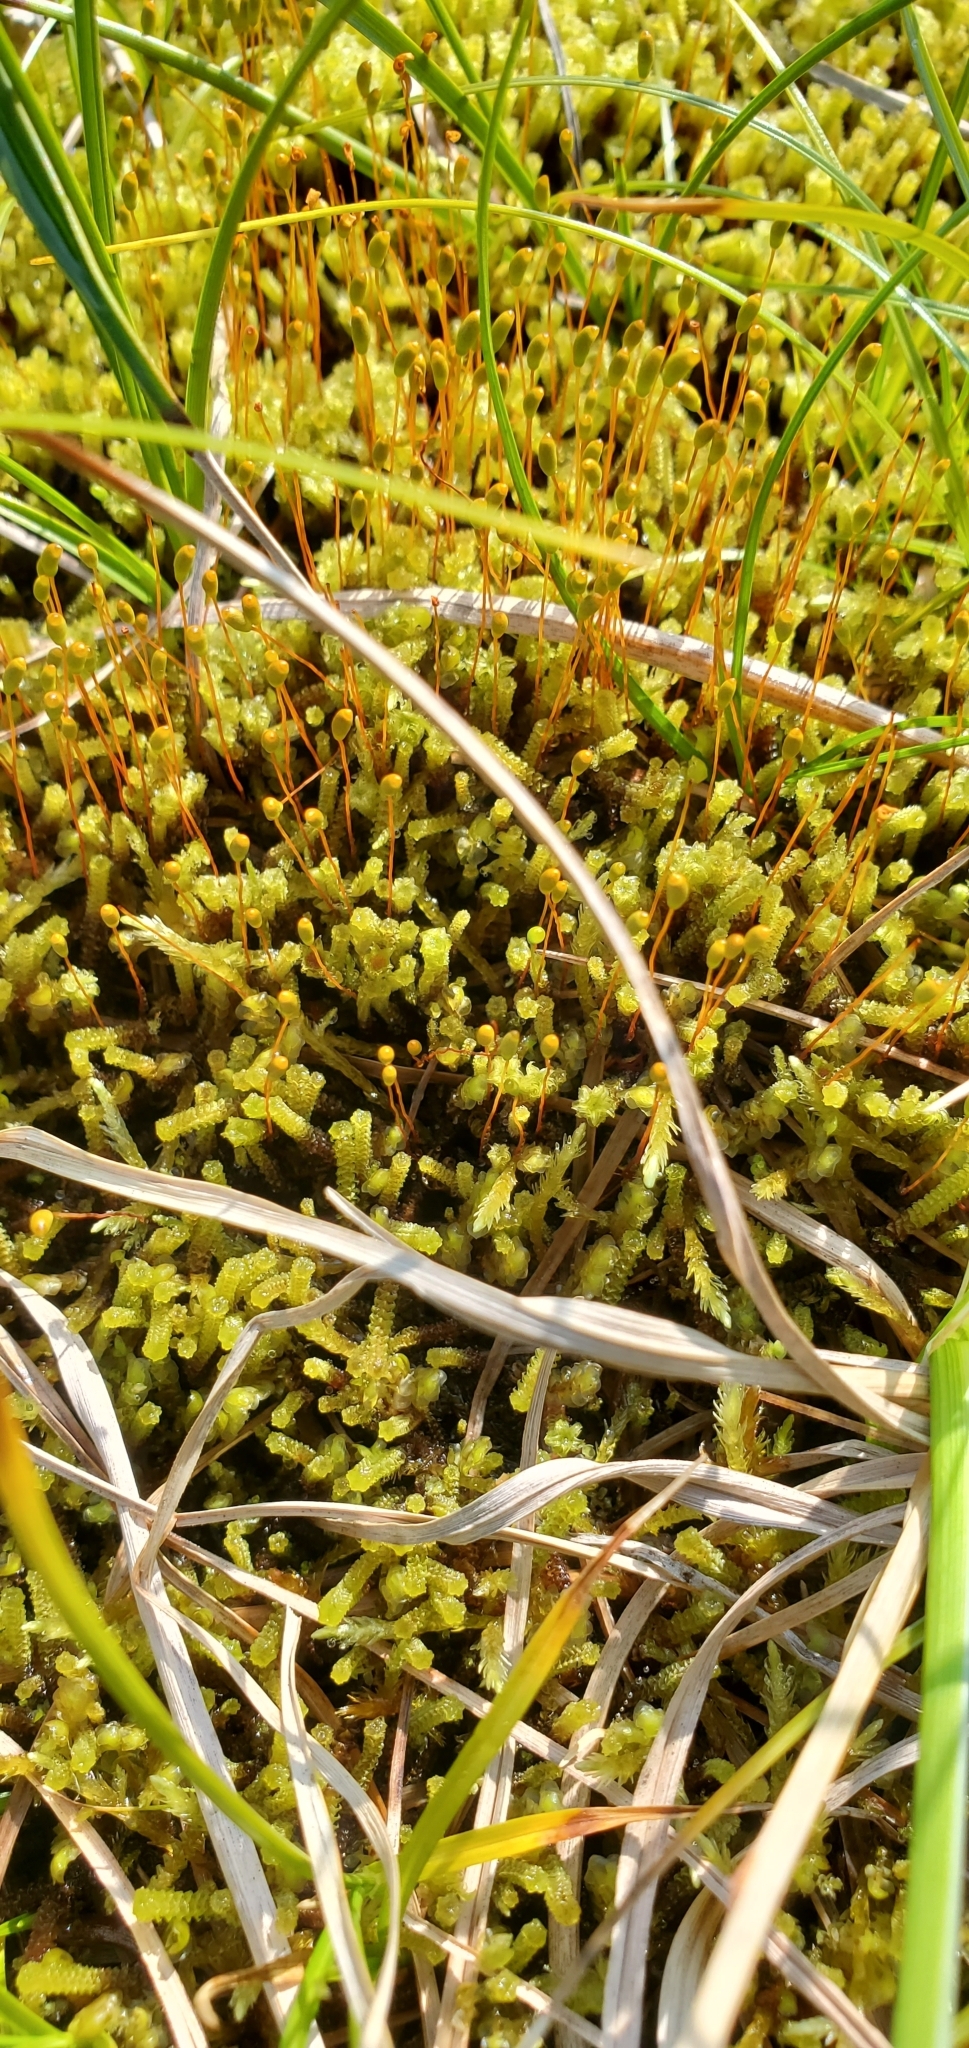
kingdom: Plantae
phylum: Bryophyta
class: Bryopsida
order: Splachnales
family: Meesiaceae
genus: Paludella
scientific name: Paludella squarrosa
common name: Tufted fen moss
